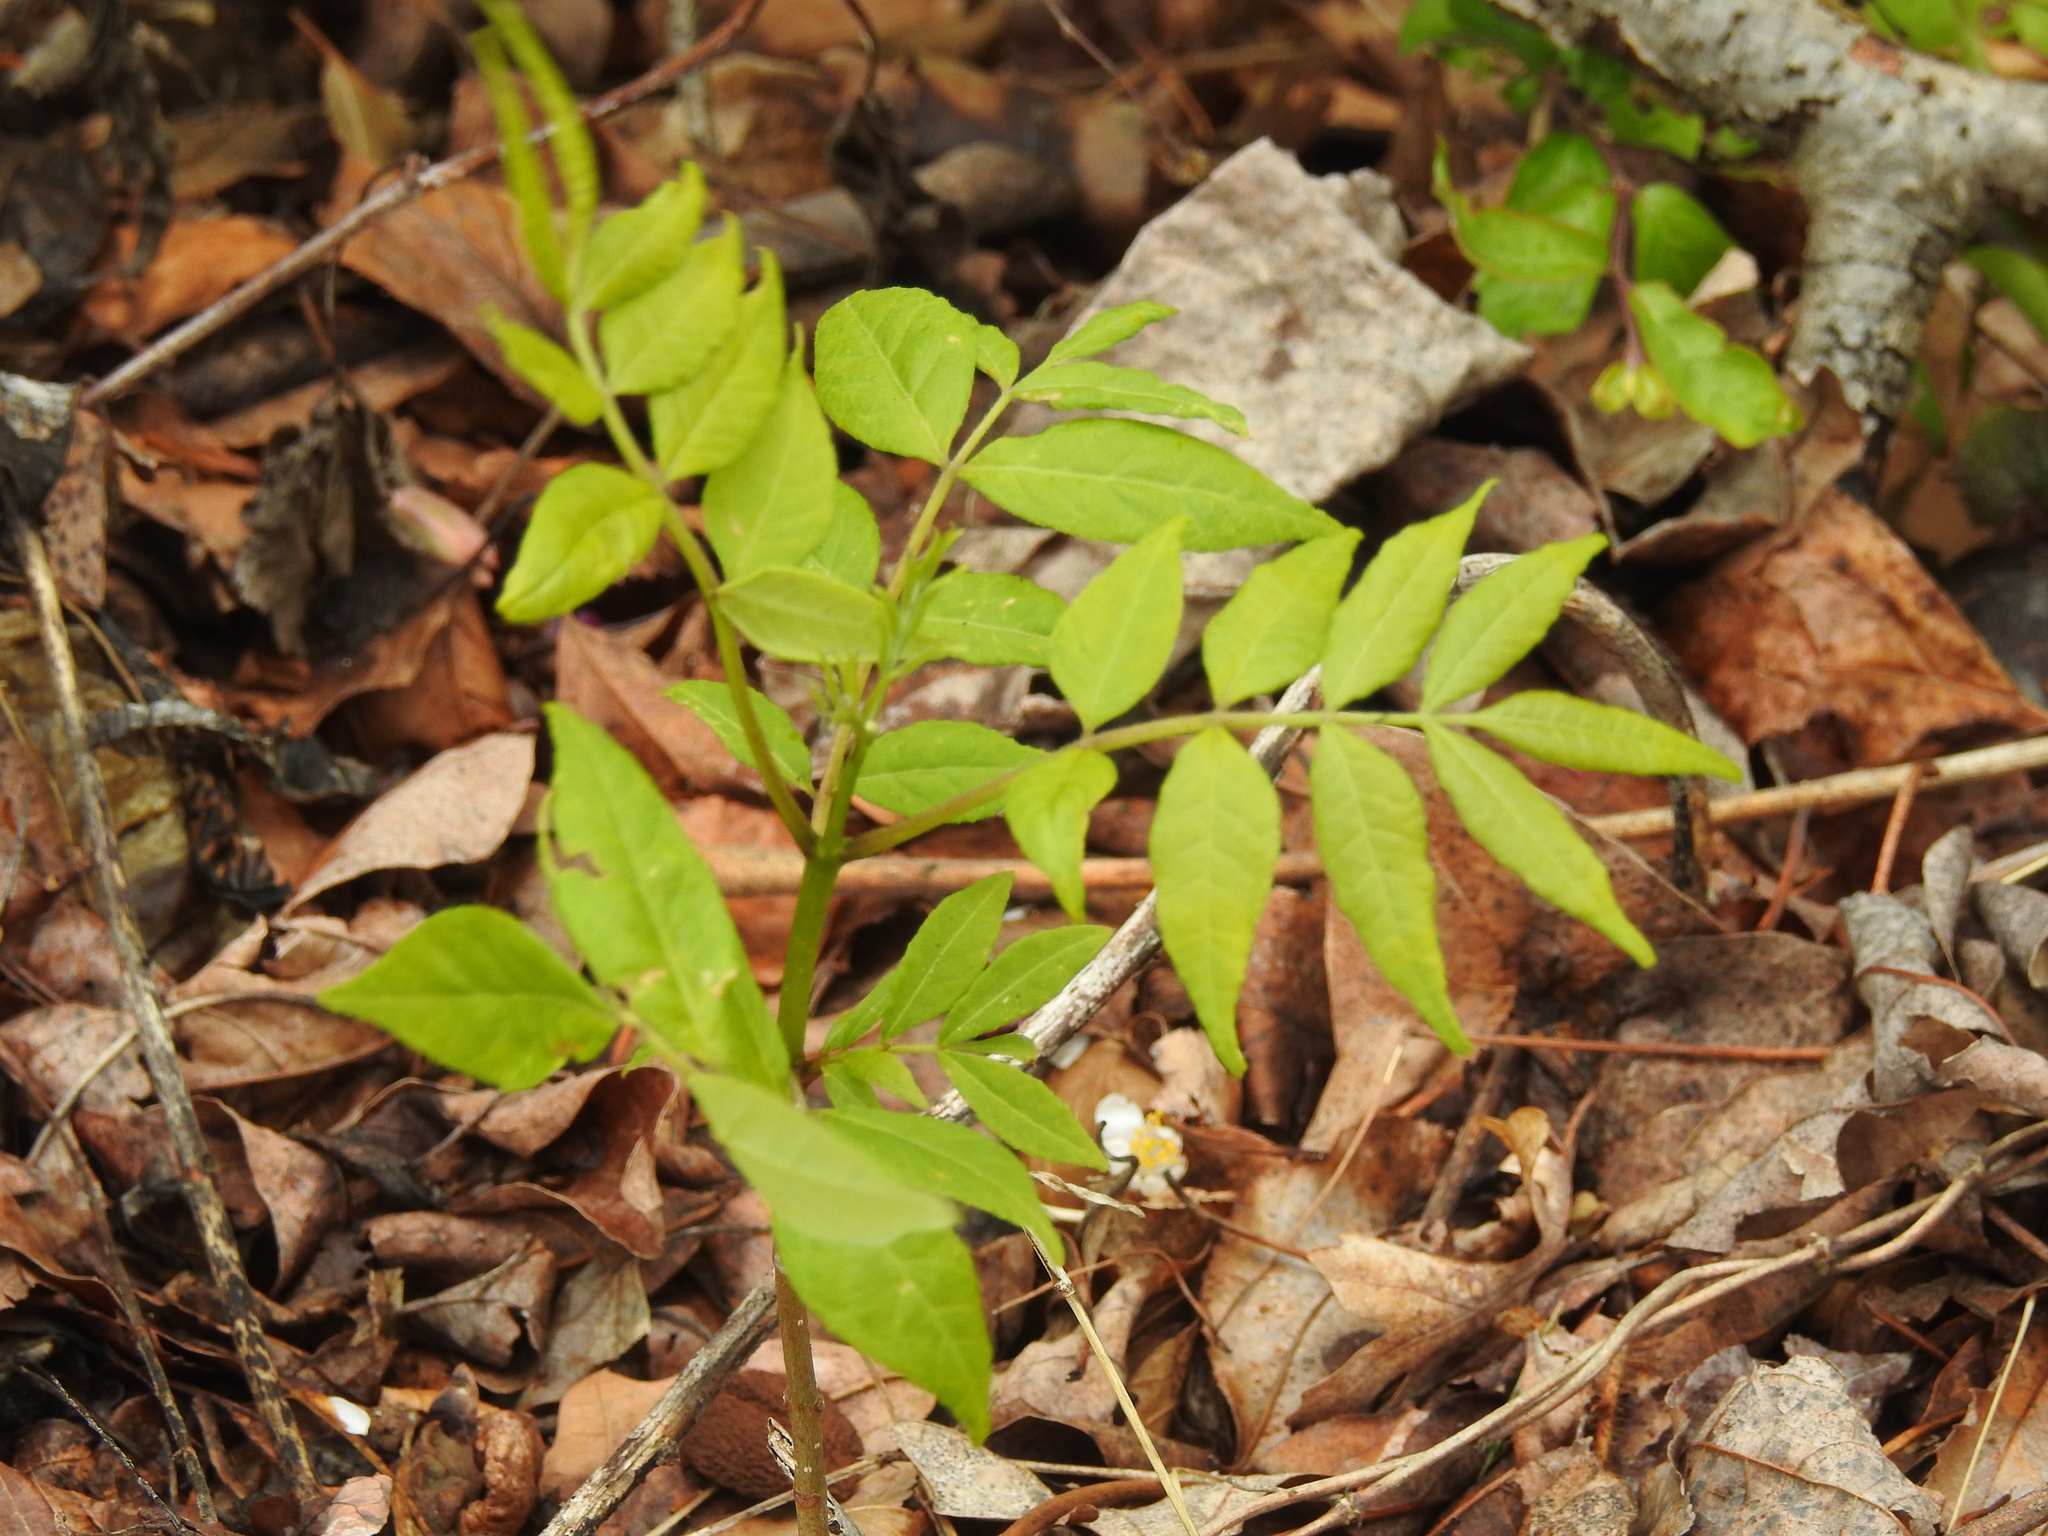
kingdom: Plantae
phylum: Tracheophyta
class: Magnoliopsida
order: Sapindales
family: Rutaceae
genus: Phellodendron
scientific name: Phellodendron amurense
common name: Amur corktree
